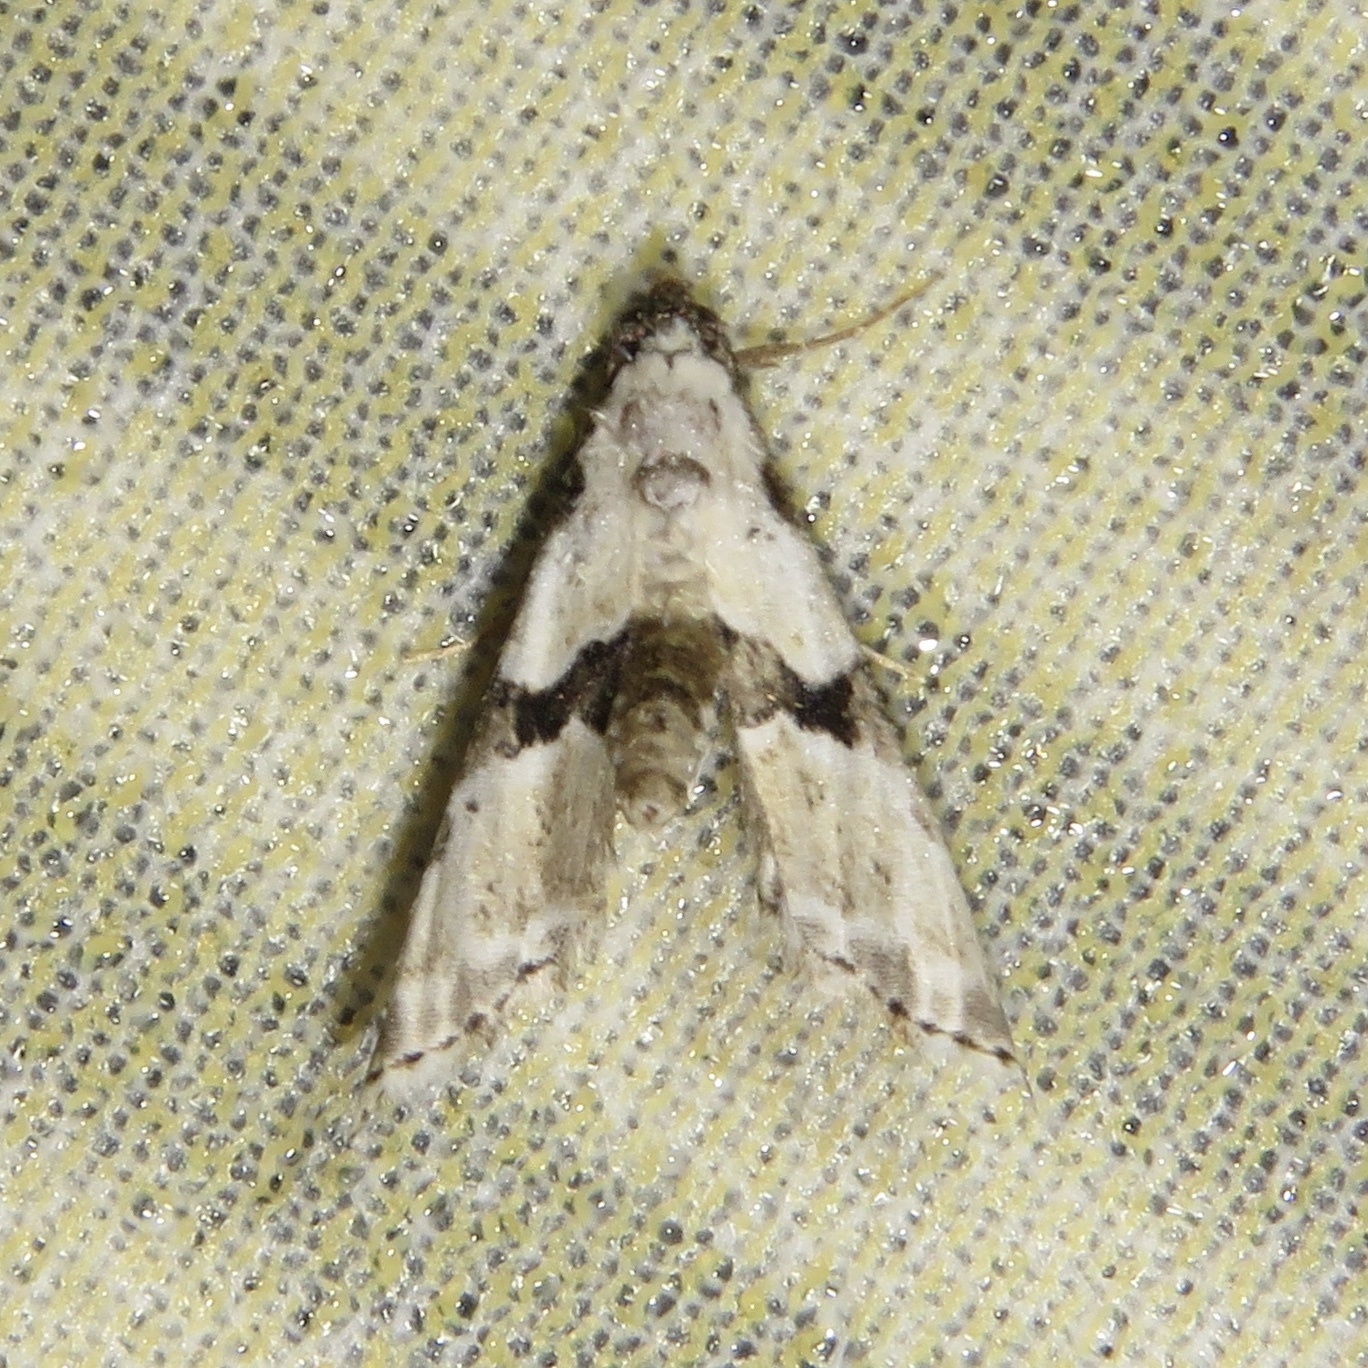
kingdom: Animalia
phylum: Arthropoda
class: Insecta
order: Lepidoptera
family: Noctuidae
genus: Nigetia
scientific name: Nigetia formosalis
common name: Thin-winged owlet
